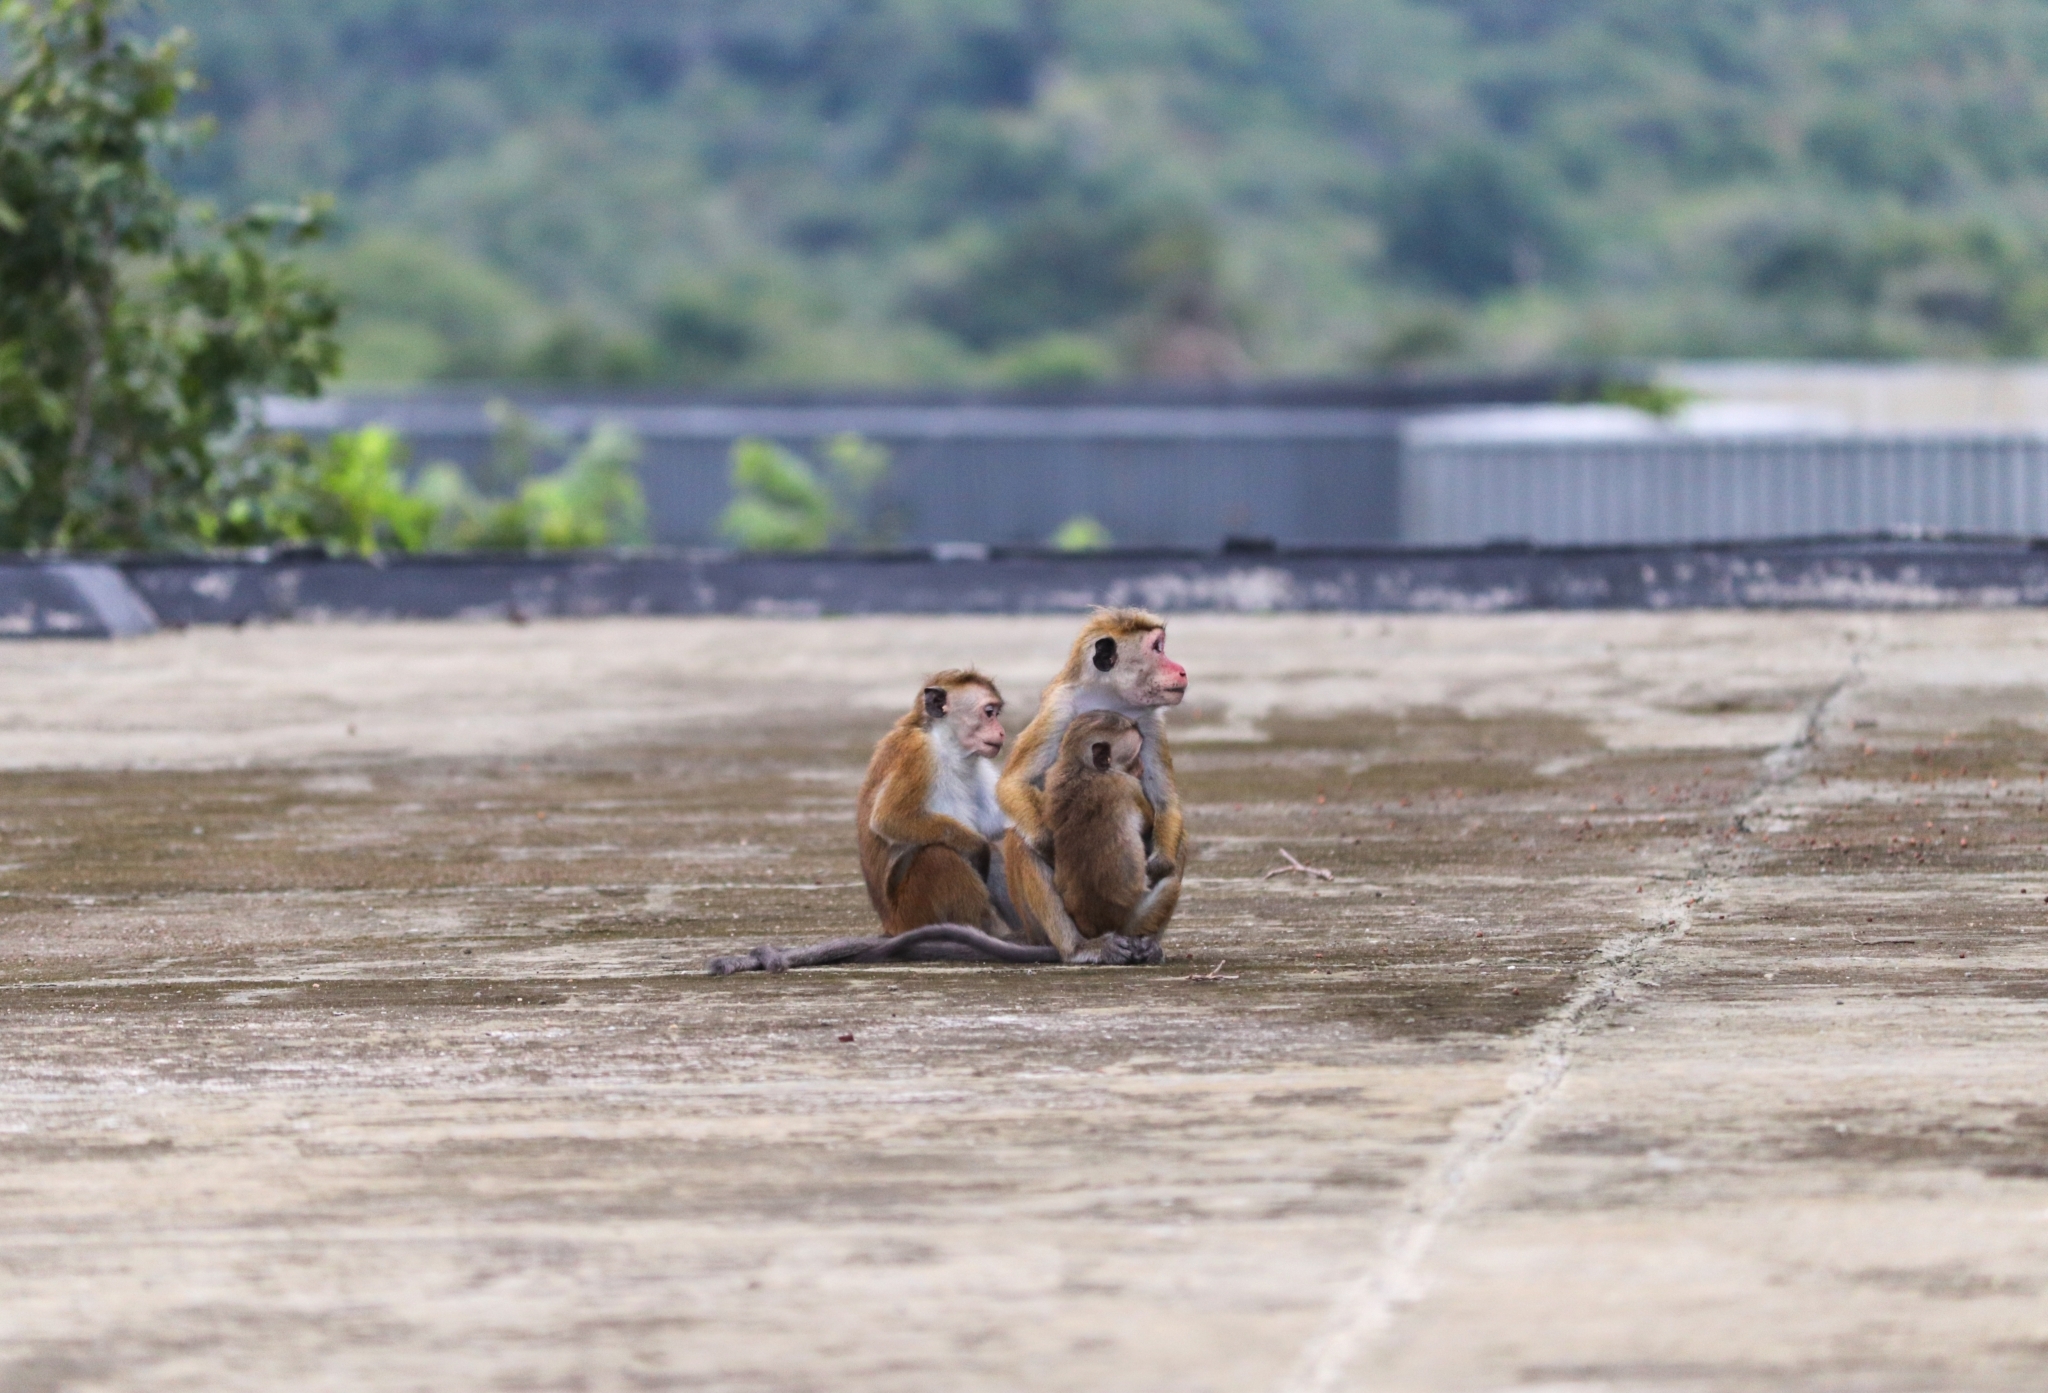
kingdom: Animalia
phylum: Chordata
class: Mammalia
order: Primates
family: Cercopithecidae
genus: Macaca
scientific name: Macaca sinica
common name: Toque macaque
